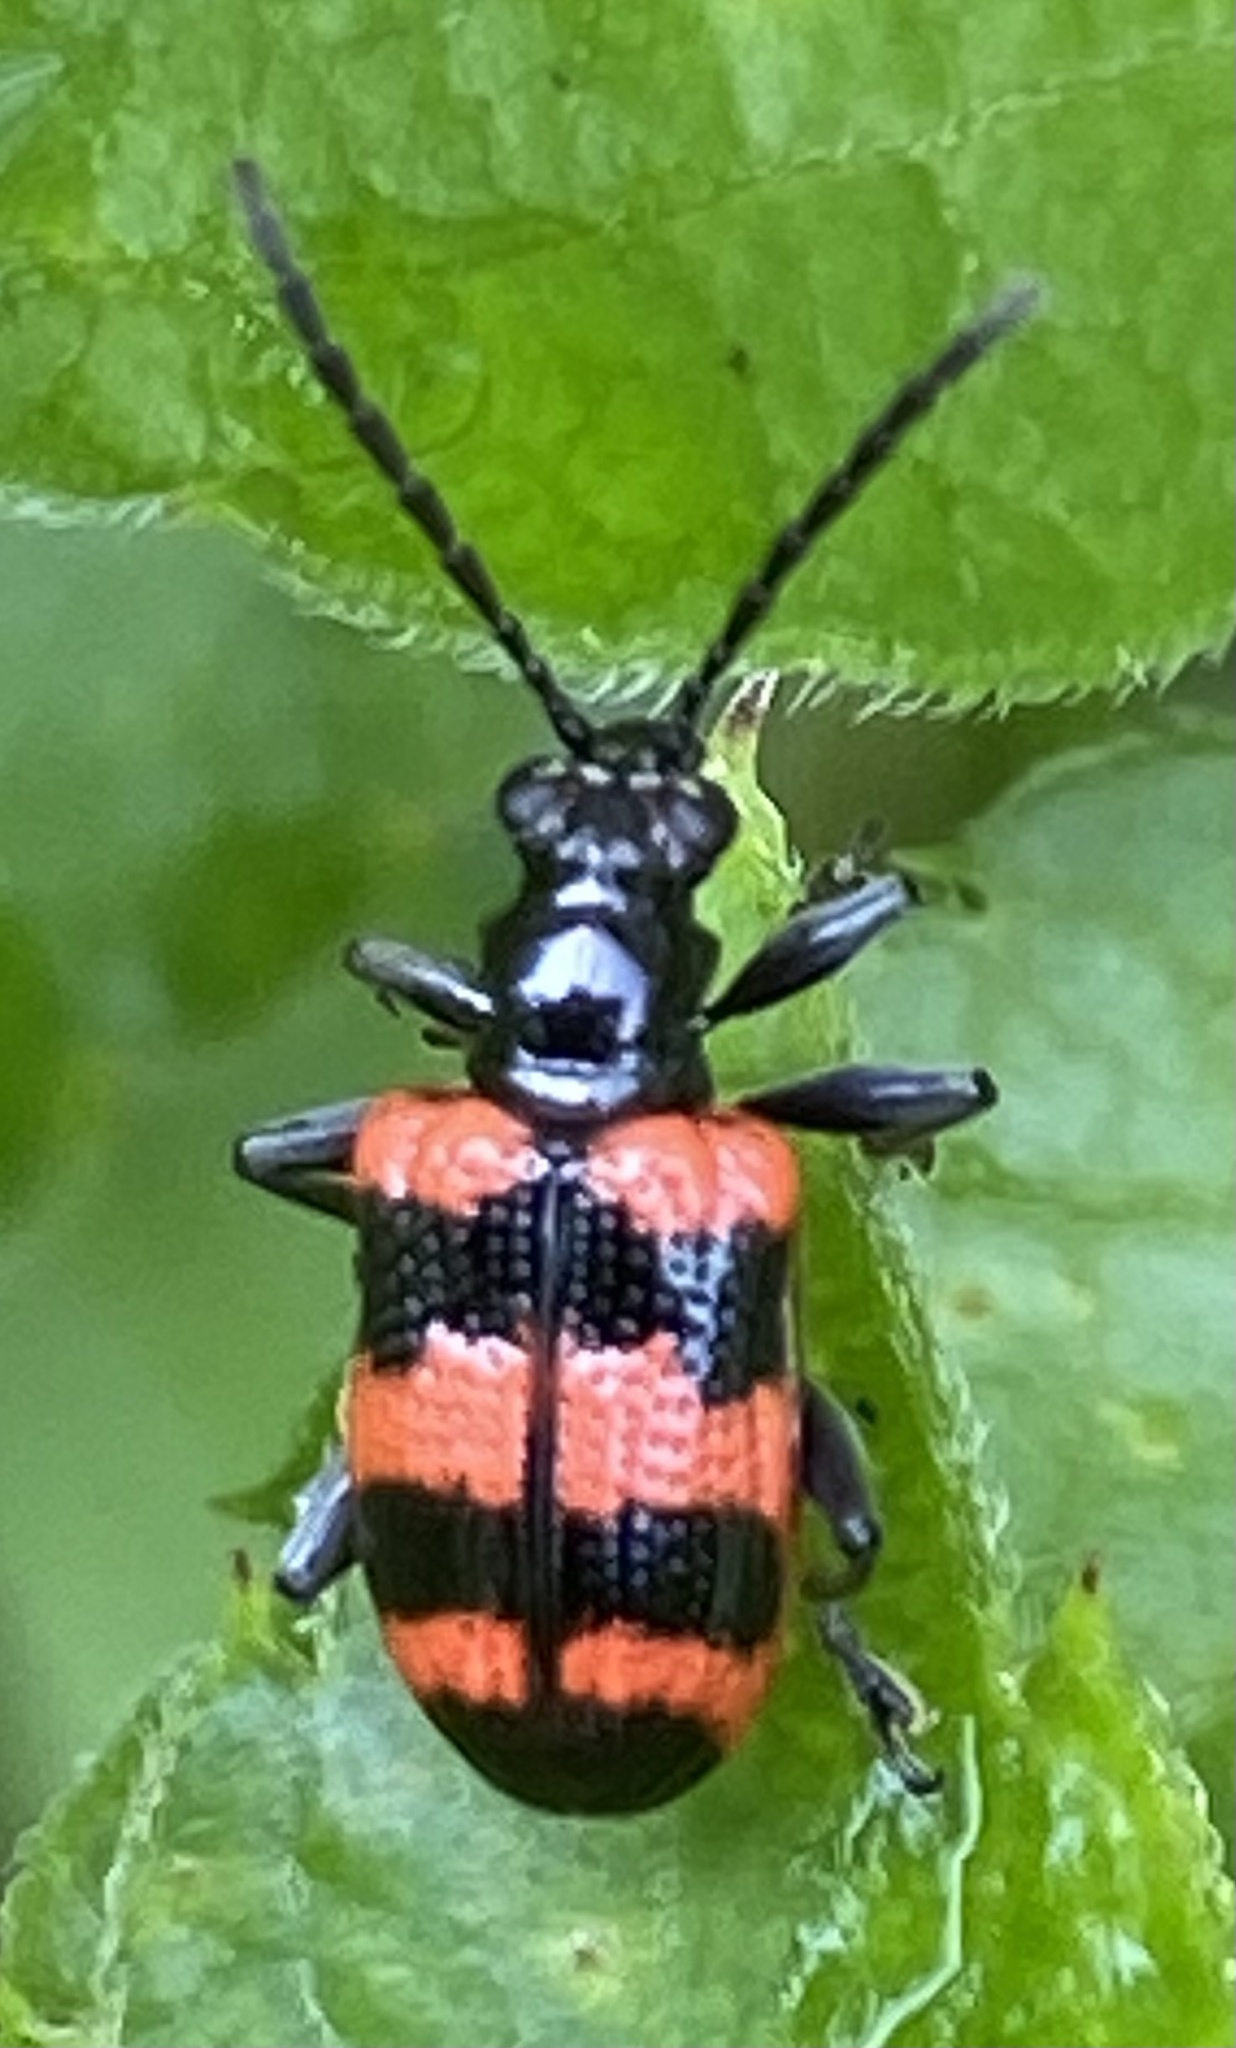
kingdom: Animalia
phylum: Arthropoda
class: Insecta
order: Coleoptera
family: Chrysomelidae
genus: Neolema
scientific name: Neolema
